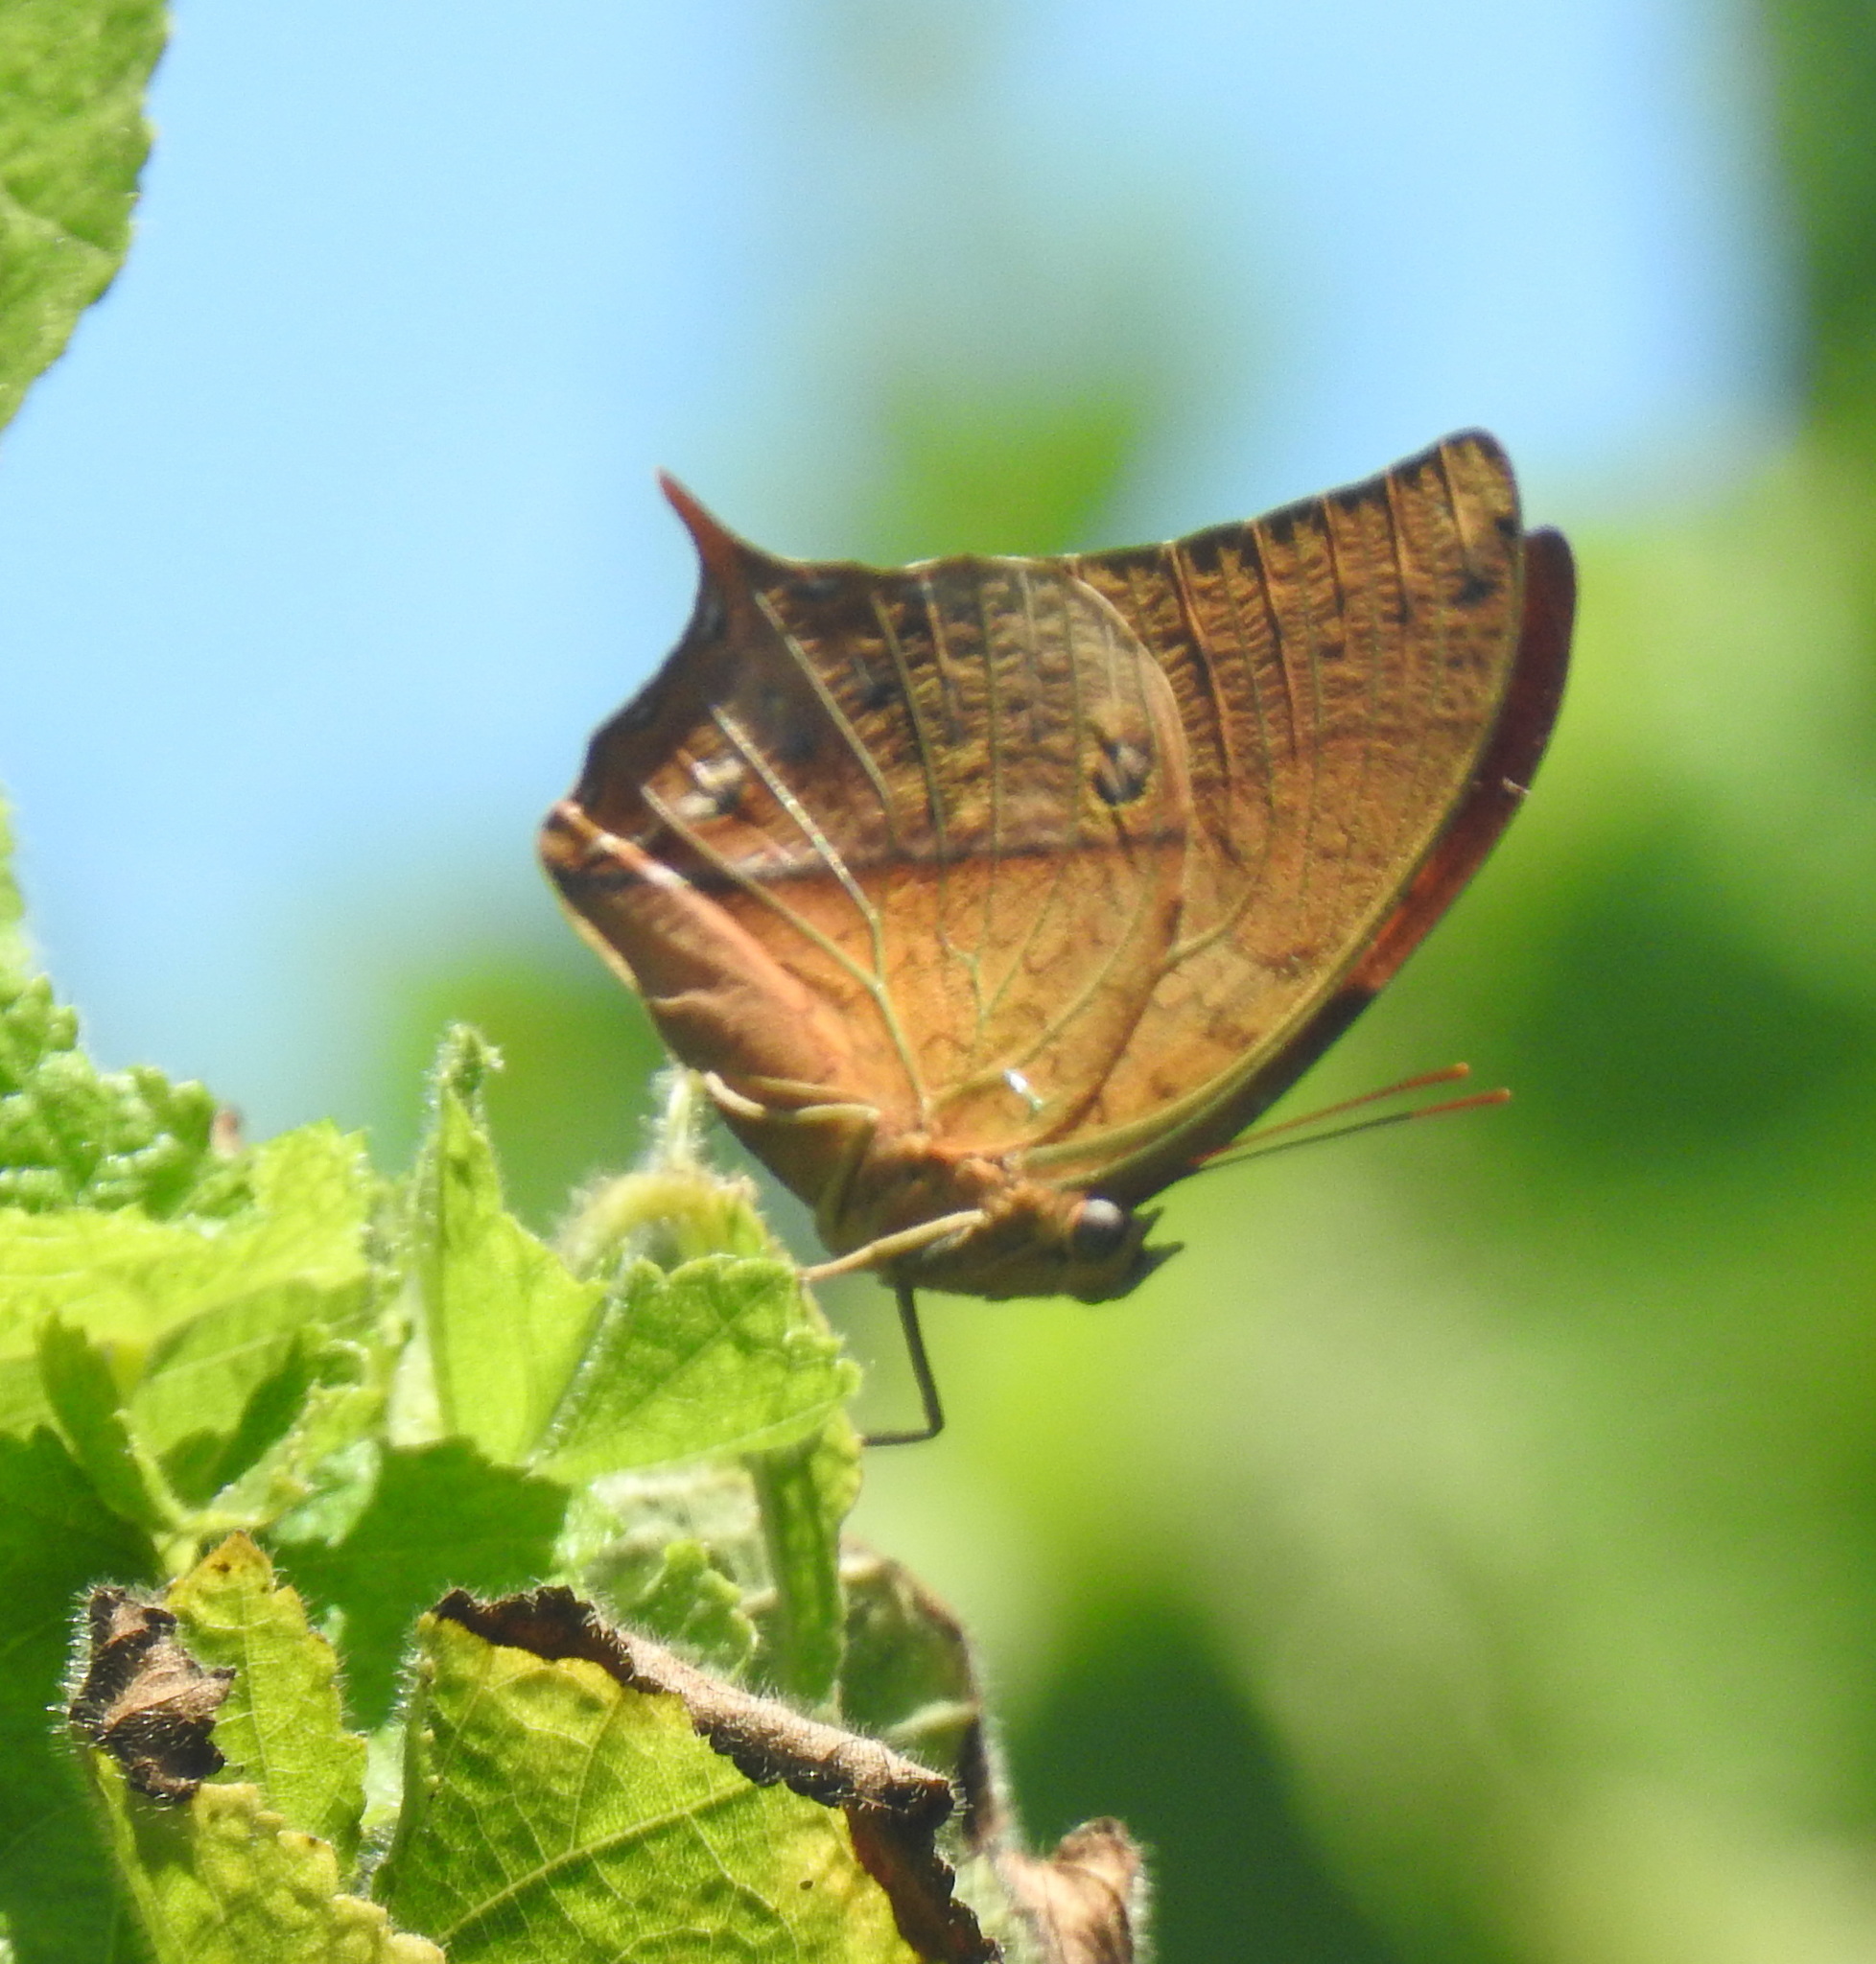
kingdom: Animalia
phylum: Arthropoda
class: Insecta
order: Lepidoptera
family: Nymphalidae
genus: Charaxes
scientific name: Charaxes varanes
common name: Common pearl charaxes
